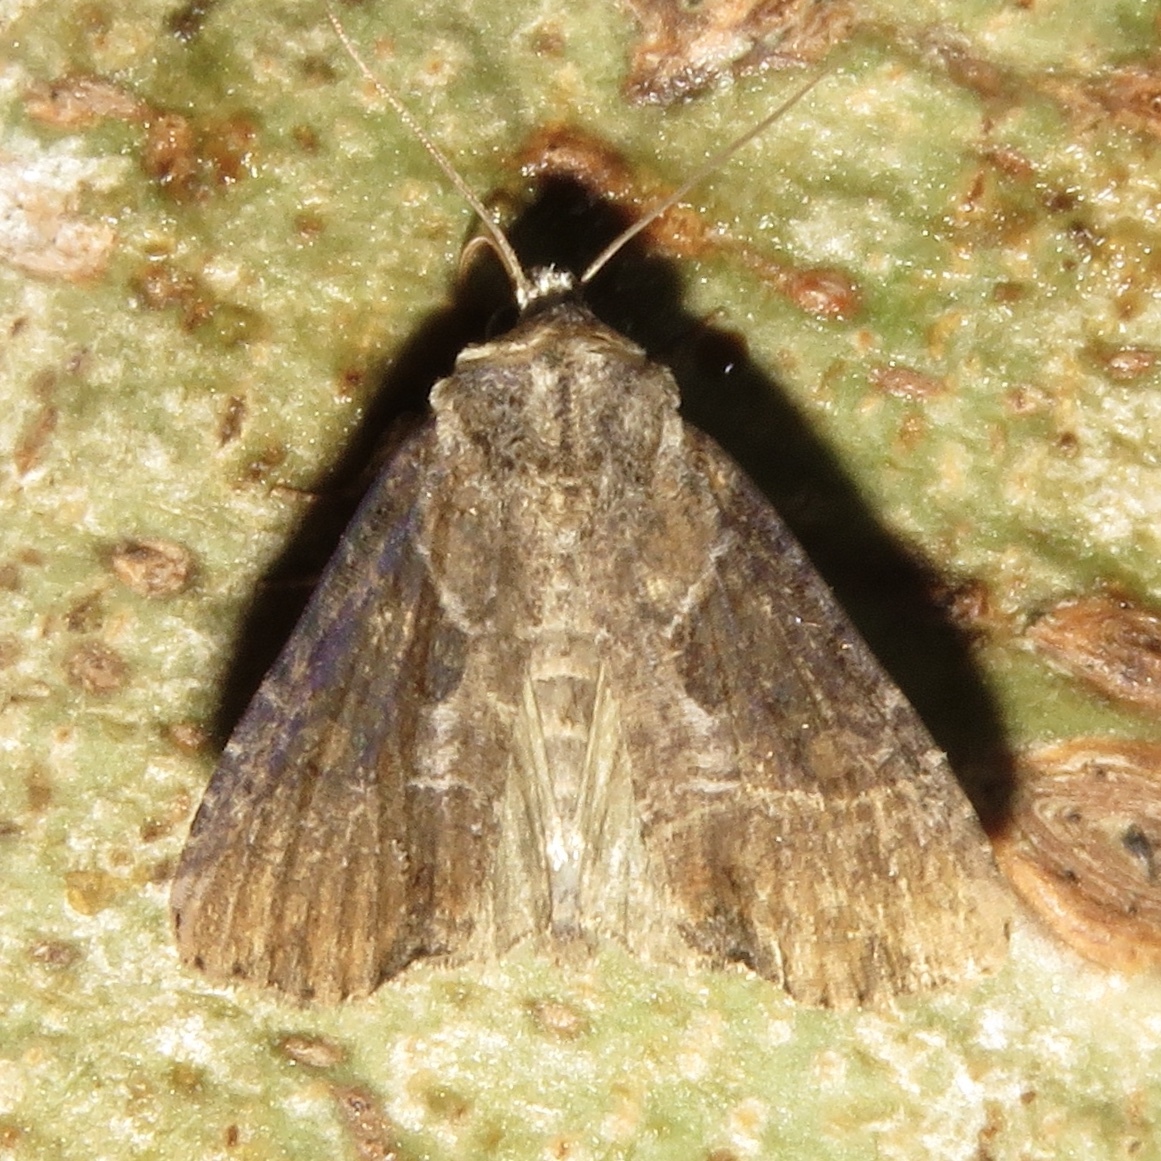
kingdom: Animalia
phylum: Arthropoda
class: Insecta
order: Lepidoptera
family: Noctuidae
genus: Lateroligia
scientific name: Lateroligia ophiogramma
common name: Double lobed
